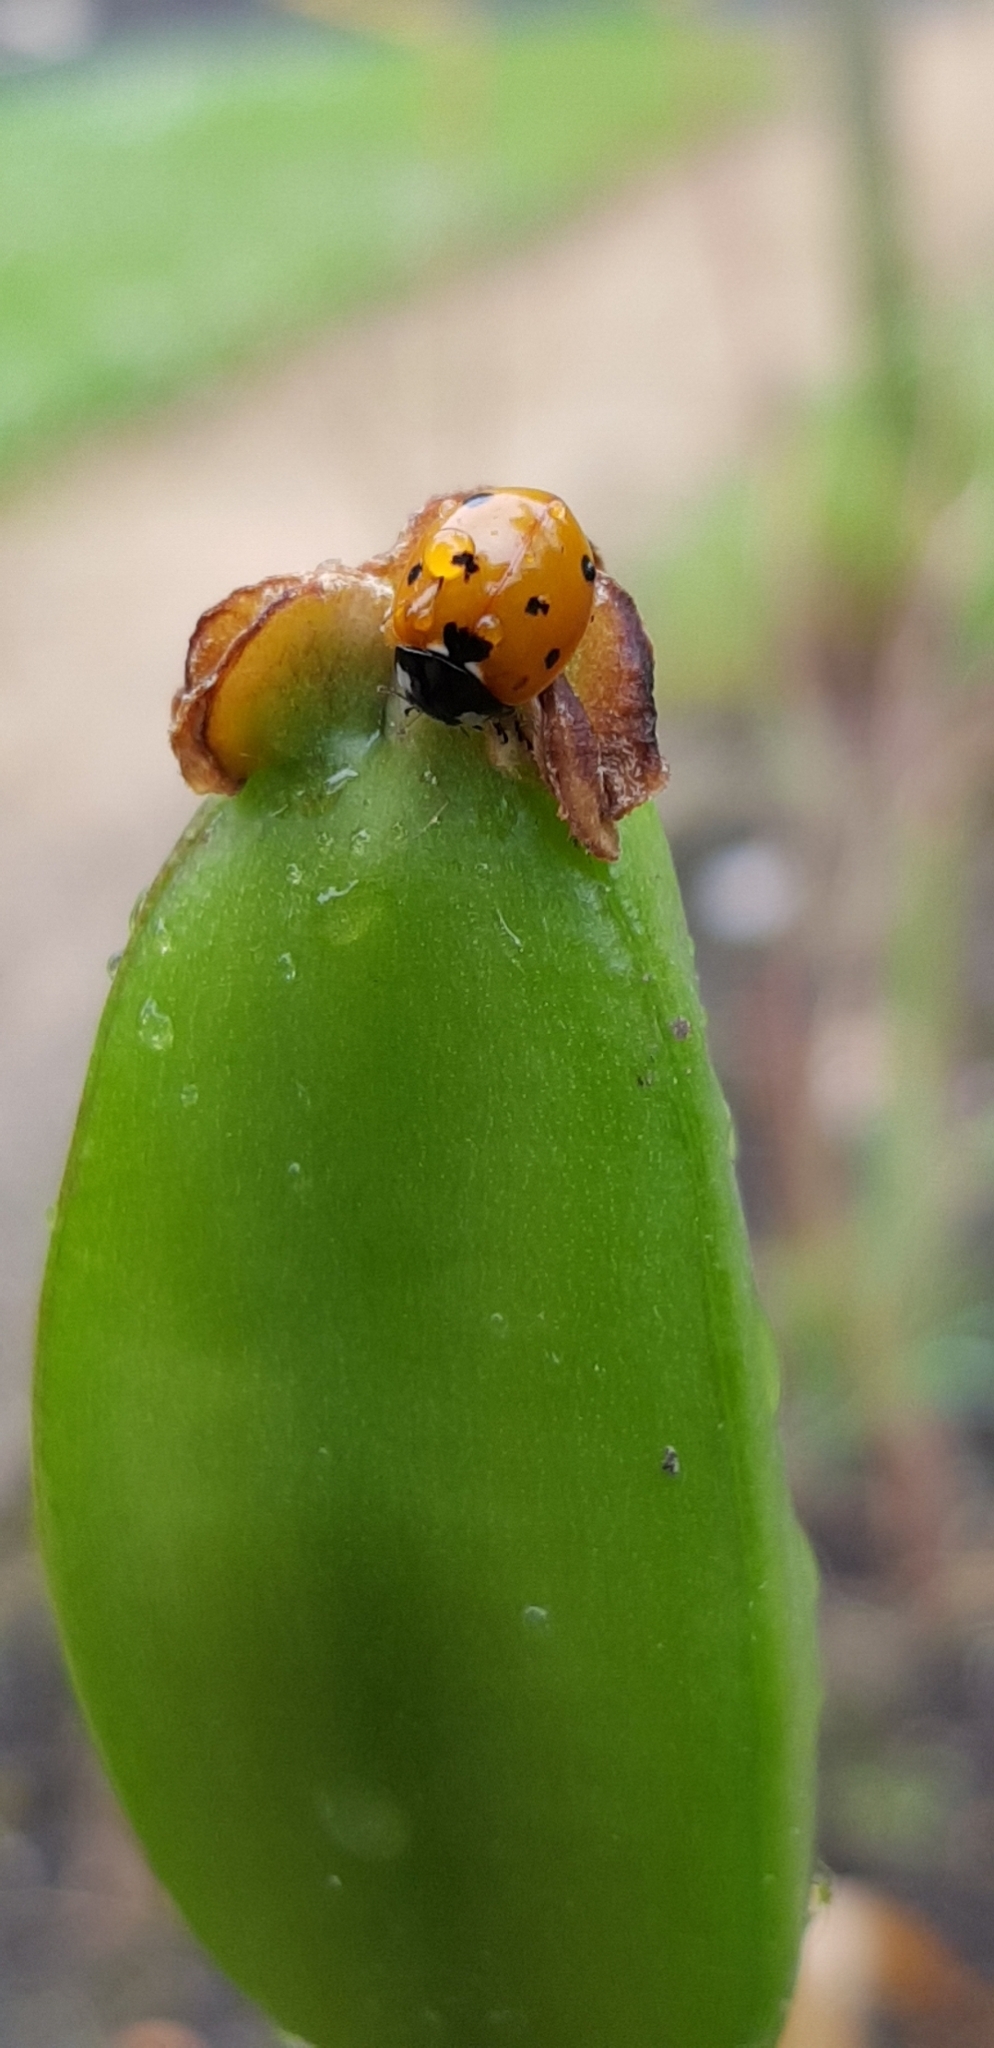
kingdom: Animalia
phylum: Arthropoda
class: Insecta
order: Coleoptera
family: Coccinellidae
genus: Coccinella
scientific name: Coccinella septempunctata
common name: Sevenspotted lady beetle
